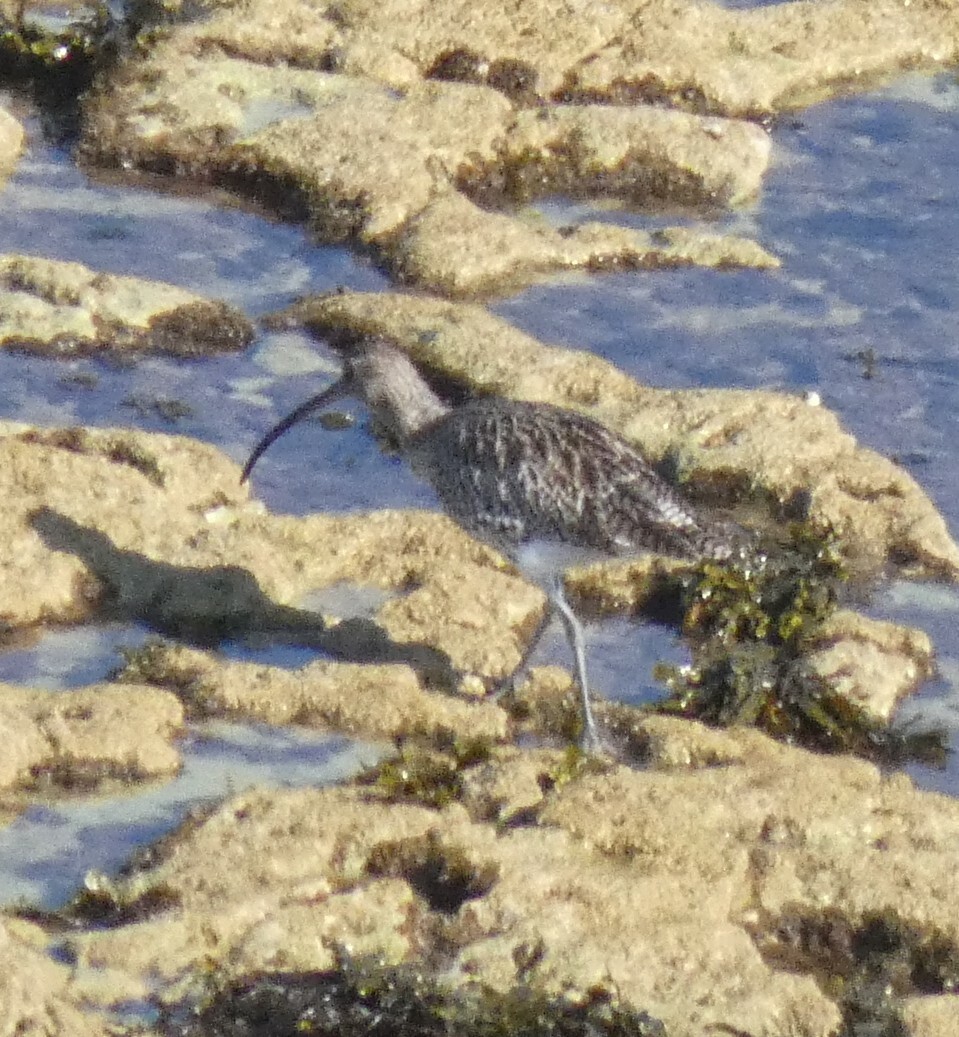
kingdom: Animalia
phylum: Chordata
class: Aves
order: Charadriiformes
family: Scolopacidae
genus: Numenius
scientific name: Numenius arquata
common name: Eurasian curlew
